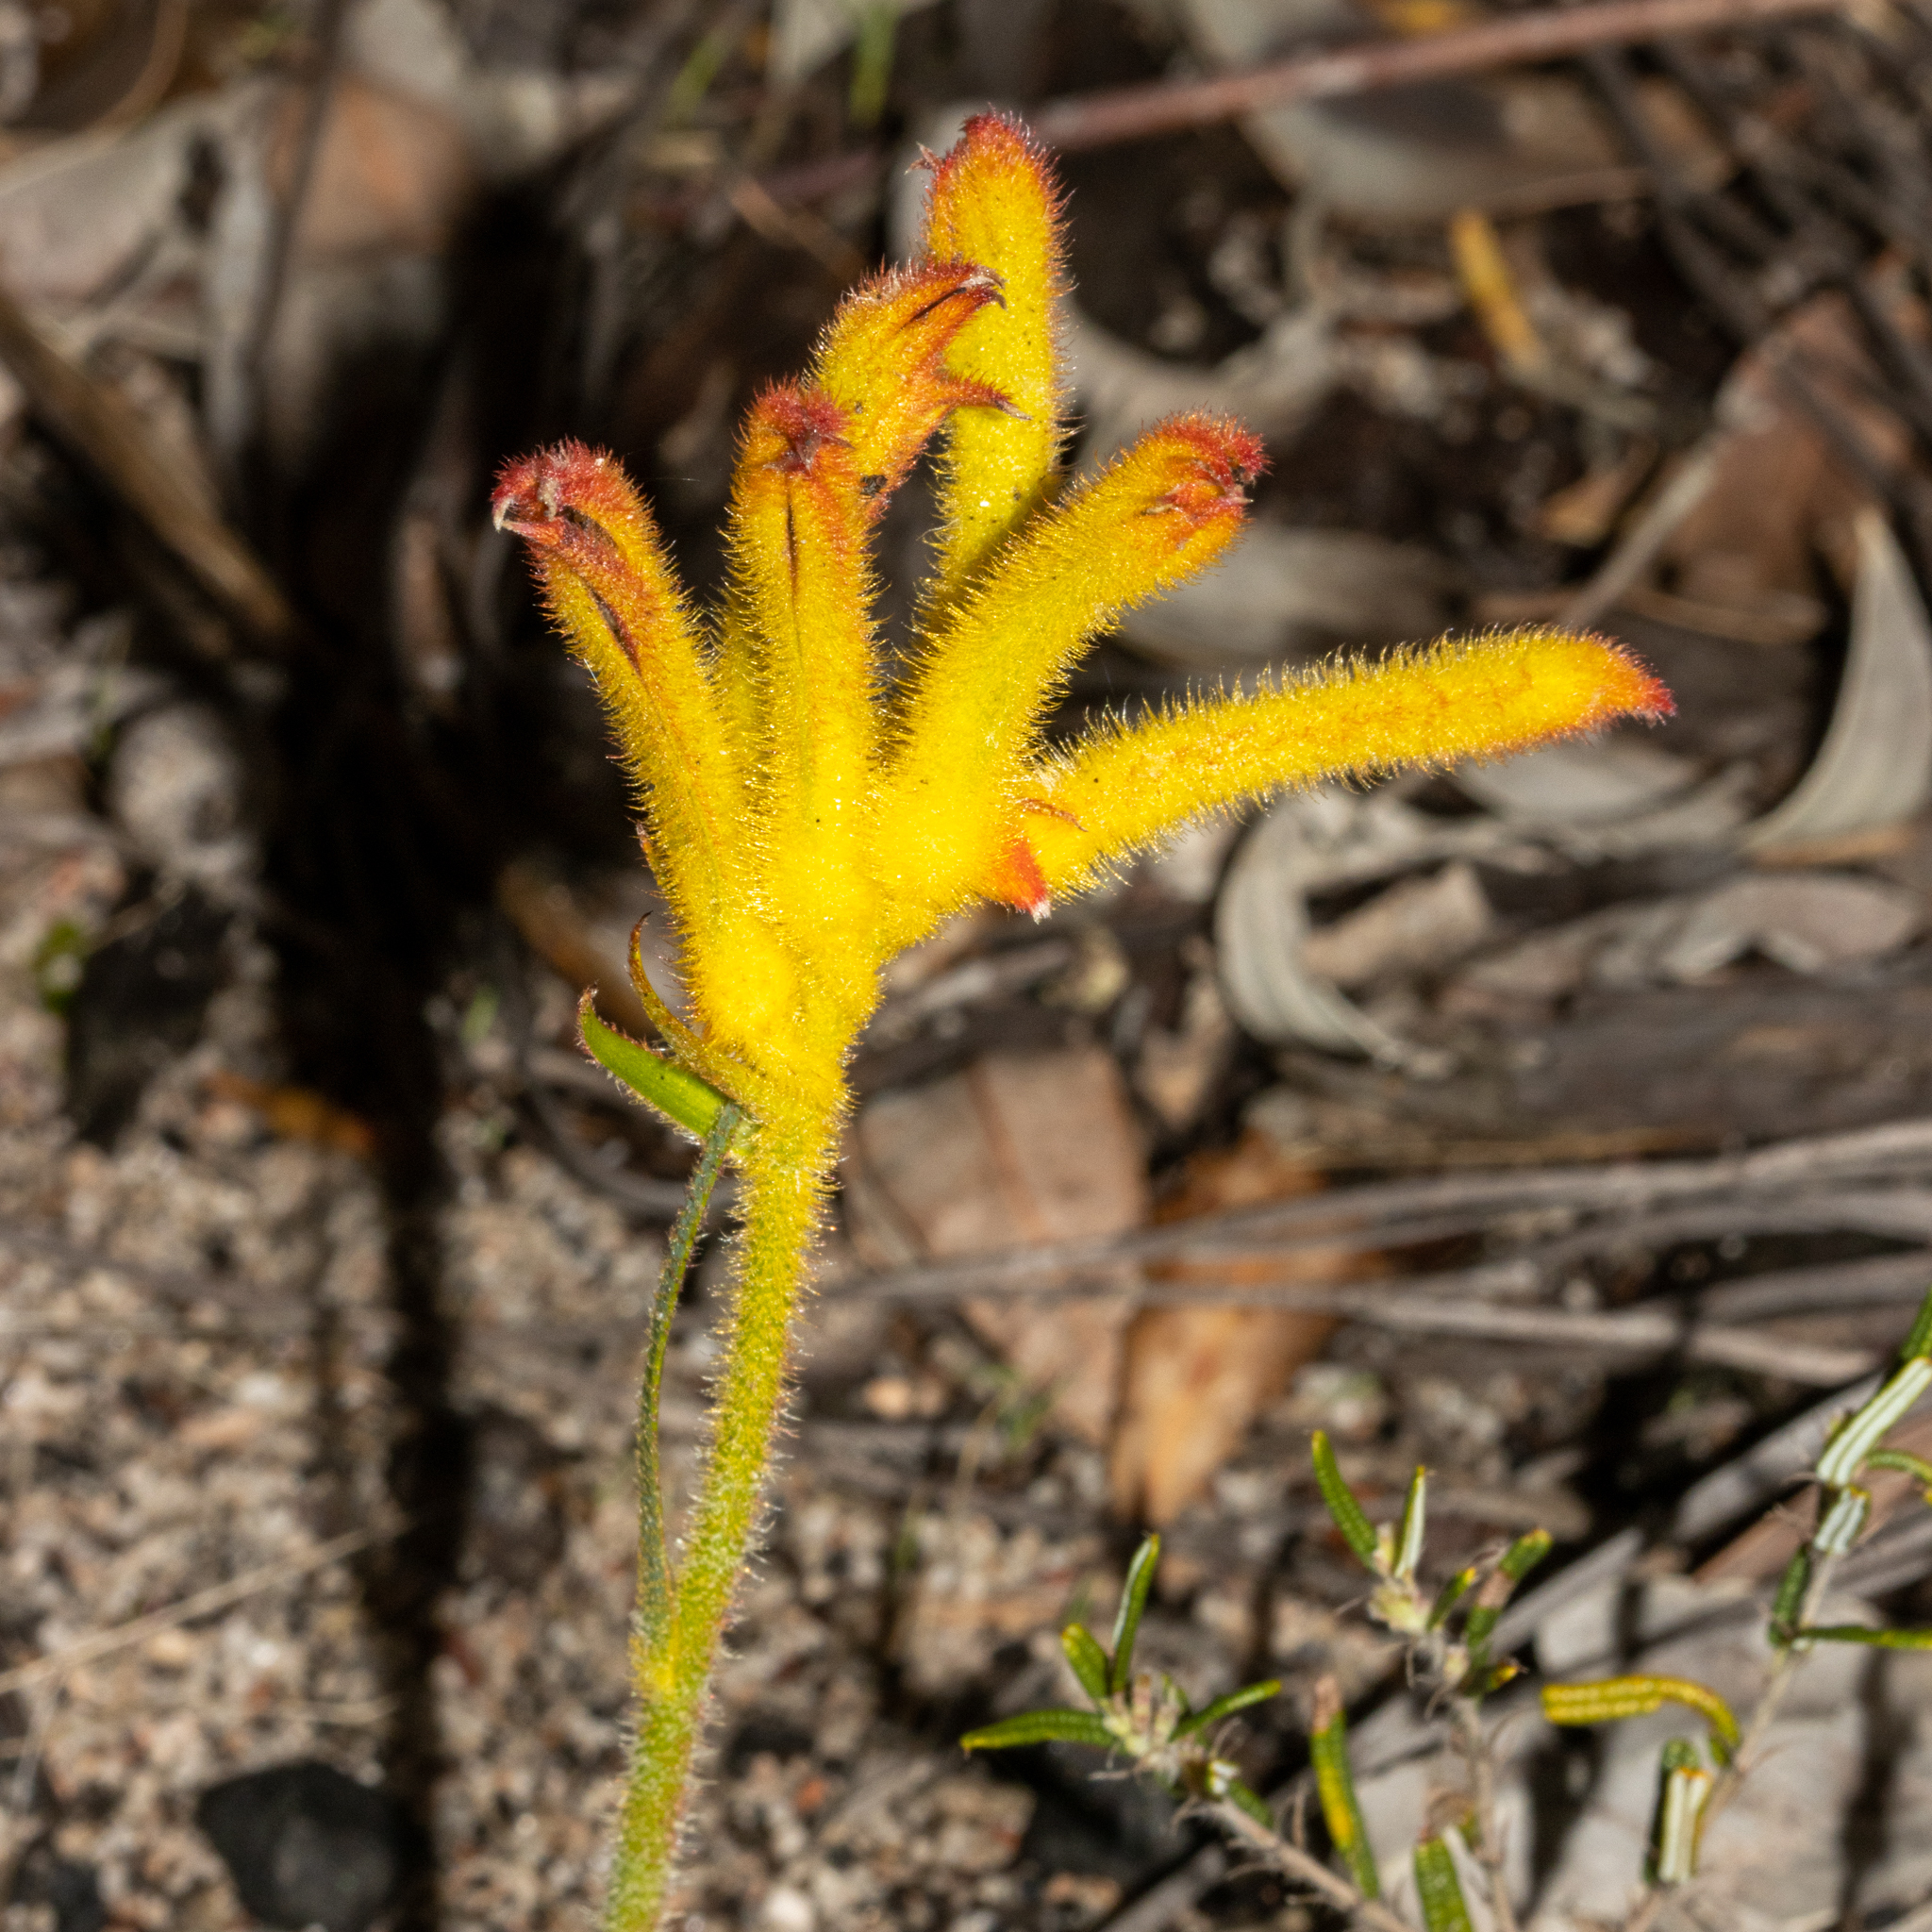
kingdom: Plantae
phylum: Tracheophyta
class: Liliopsida
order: Commelinales
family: Haemodoraceae
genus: Anigozanthos
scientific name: Anigozanthos humilis
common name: Cat's-paw
